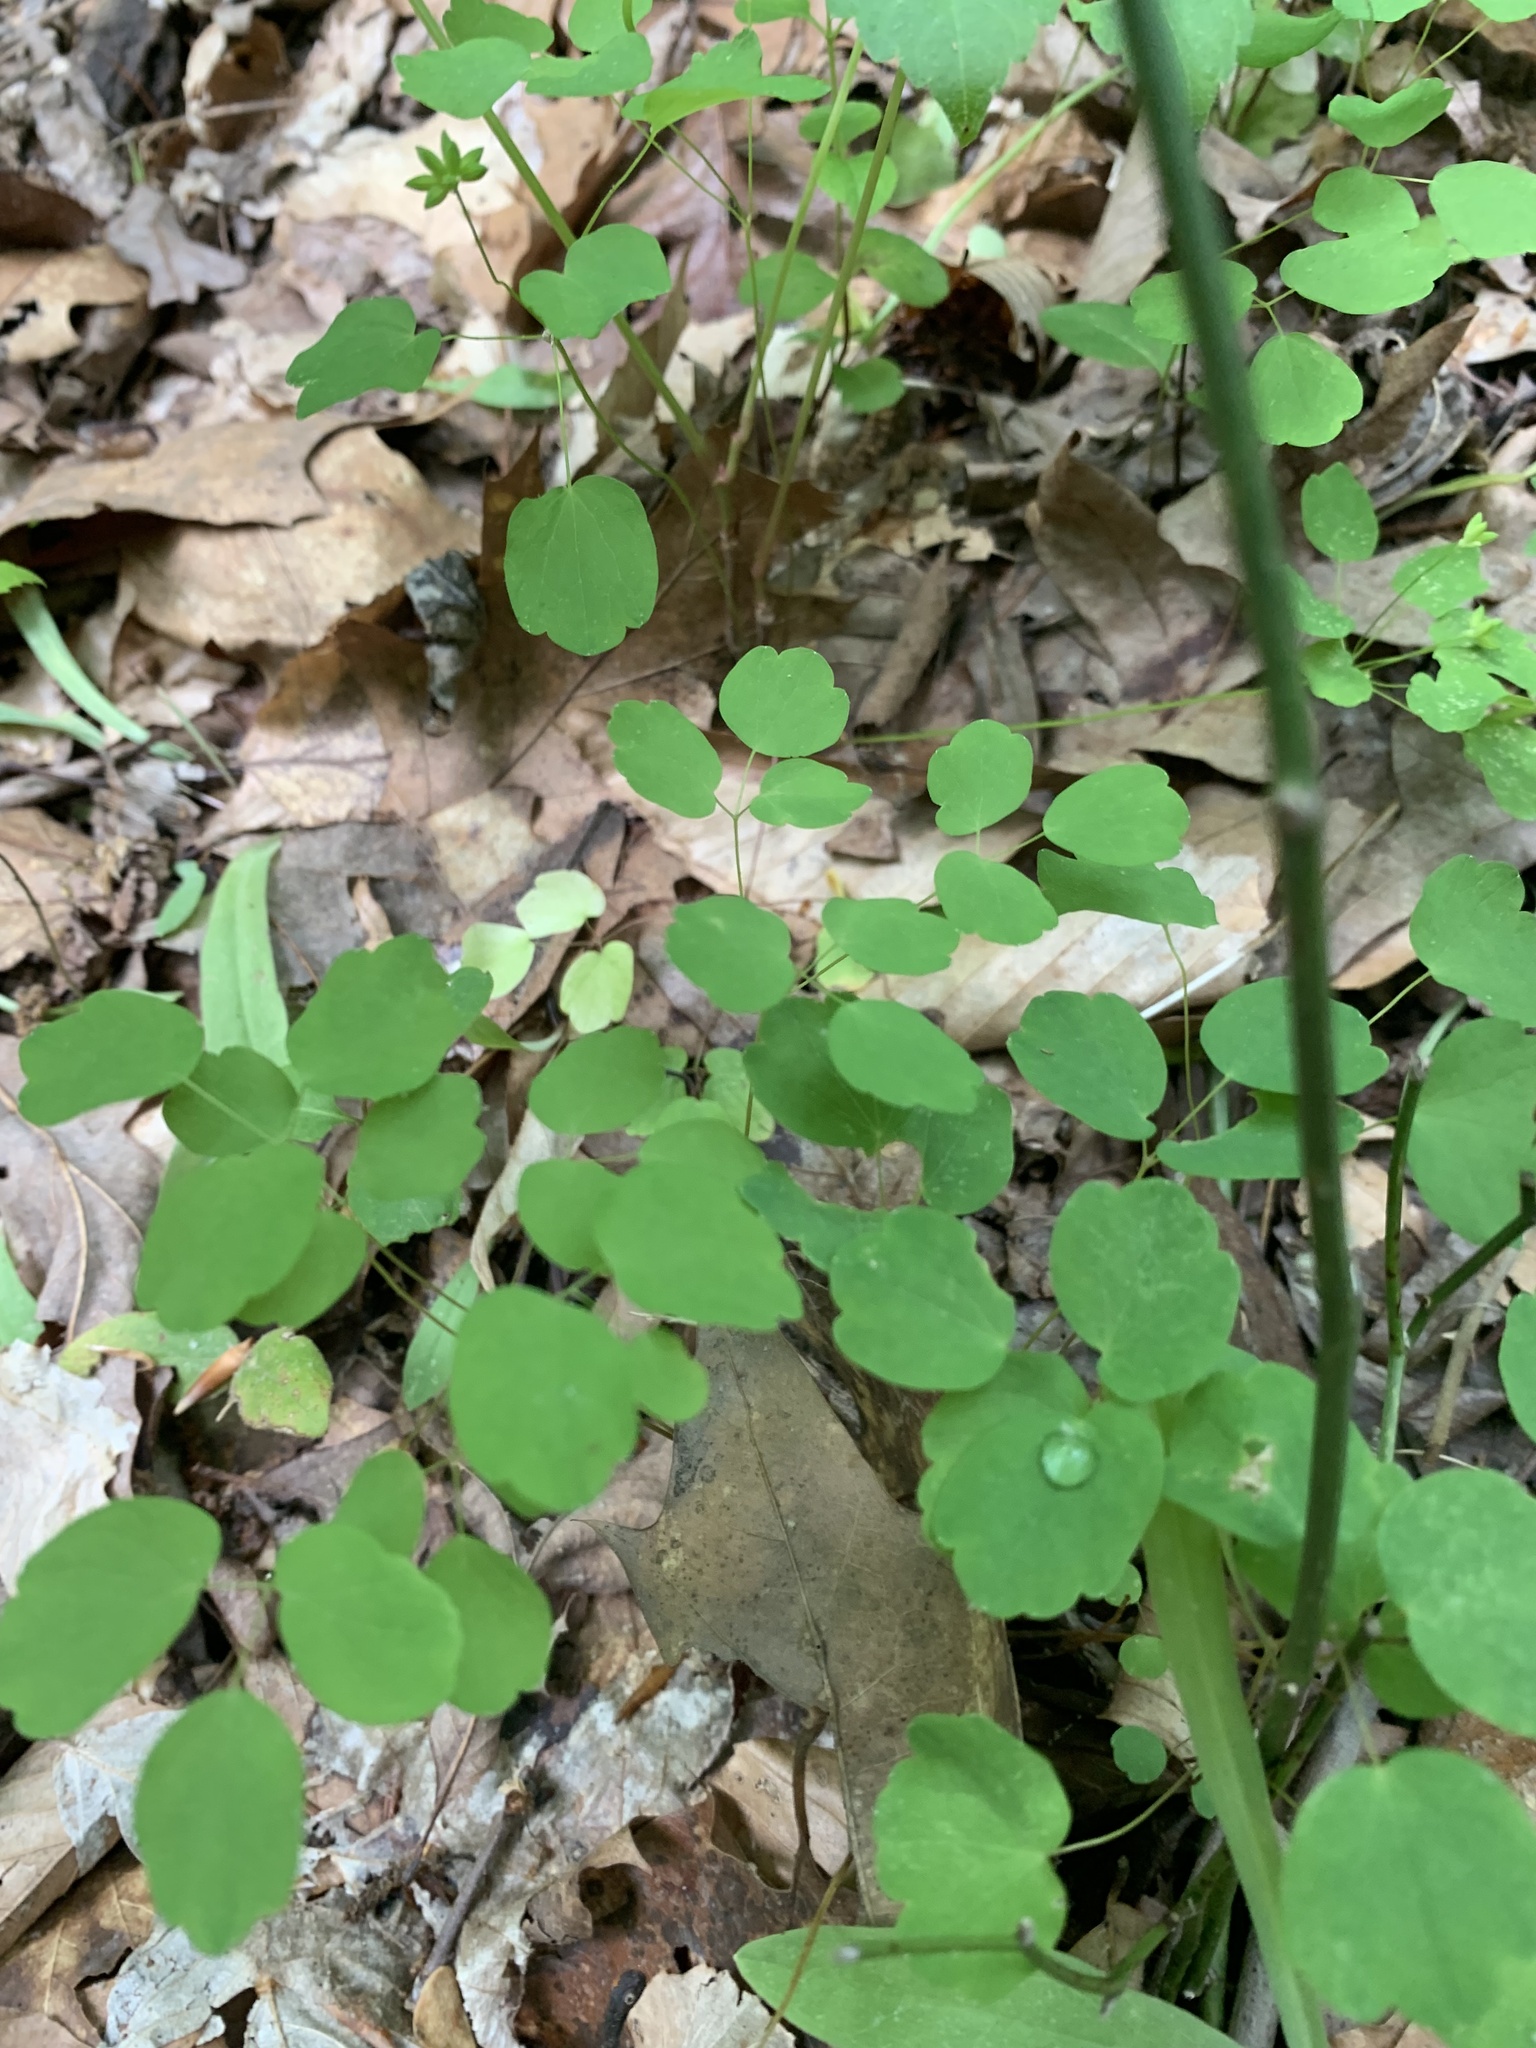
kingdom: Plantae
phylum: Tracheophyta
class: Magnoliopsida
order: Ranunculales
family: Ranunculaceae
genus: Thalictrum
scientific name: Thalictrum thalictroides
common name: Rue-anemone
